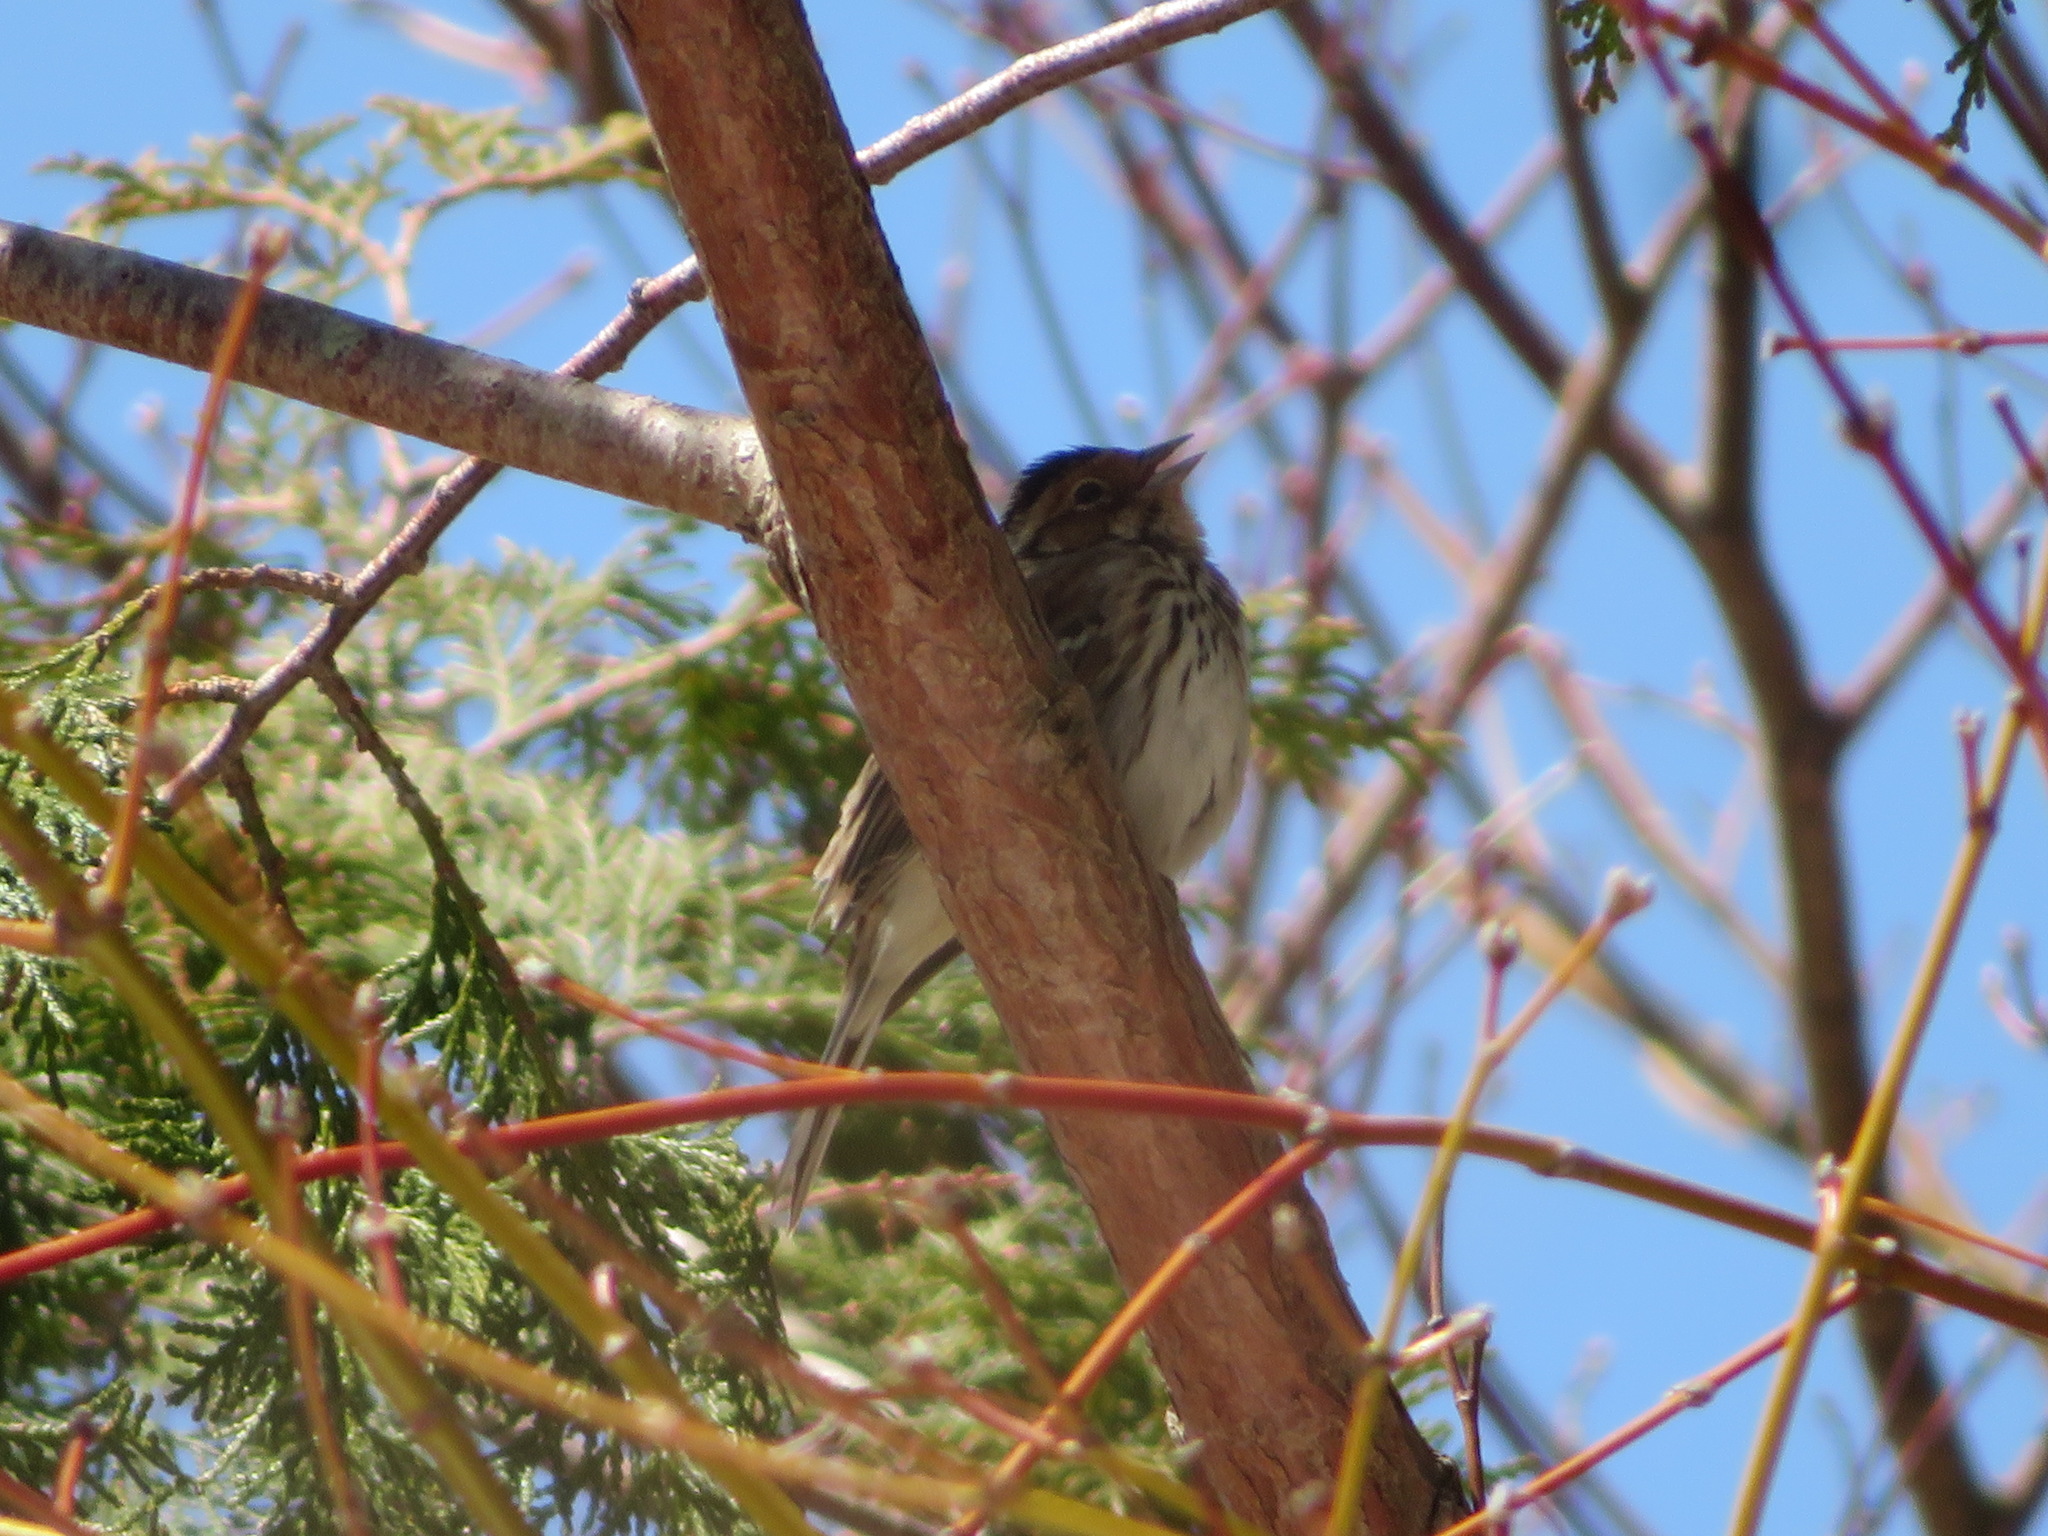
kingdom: Animalia
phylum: Chordata
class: Aves
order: Passeriformes
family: Emberizidae
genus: Emberiza
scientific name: Emberiza pusilla
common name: Little bunting
